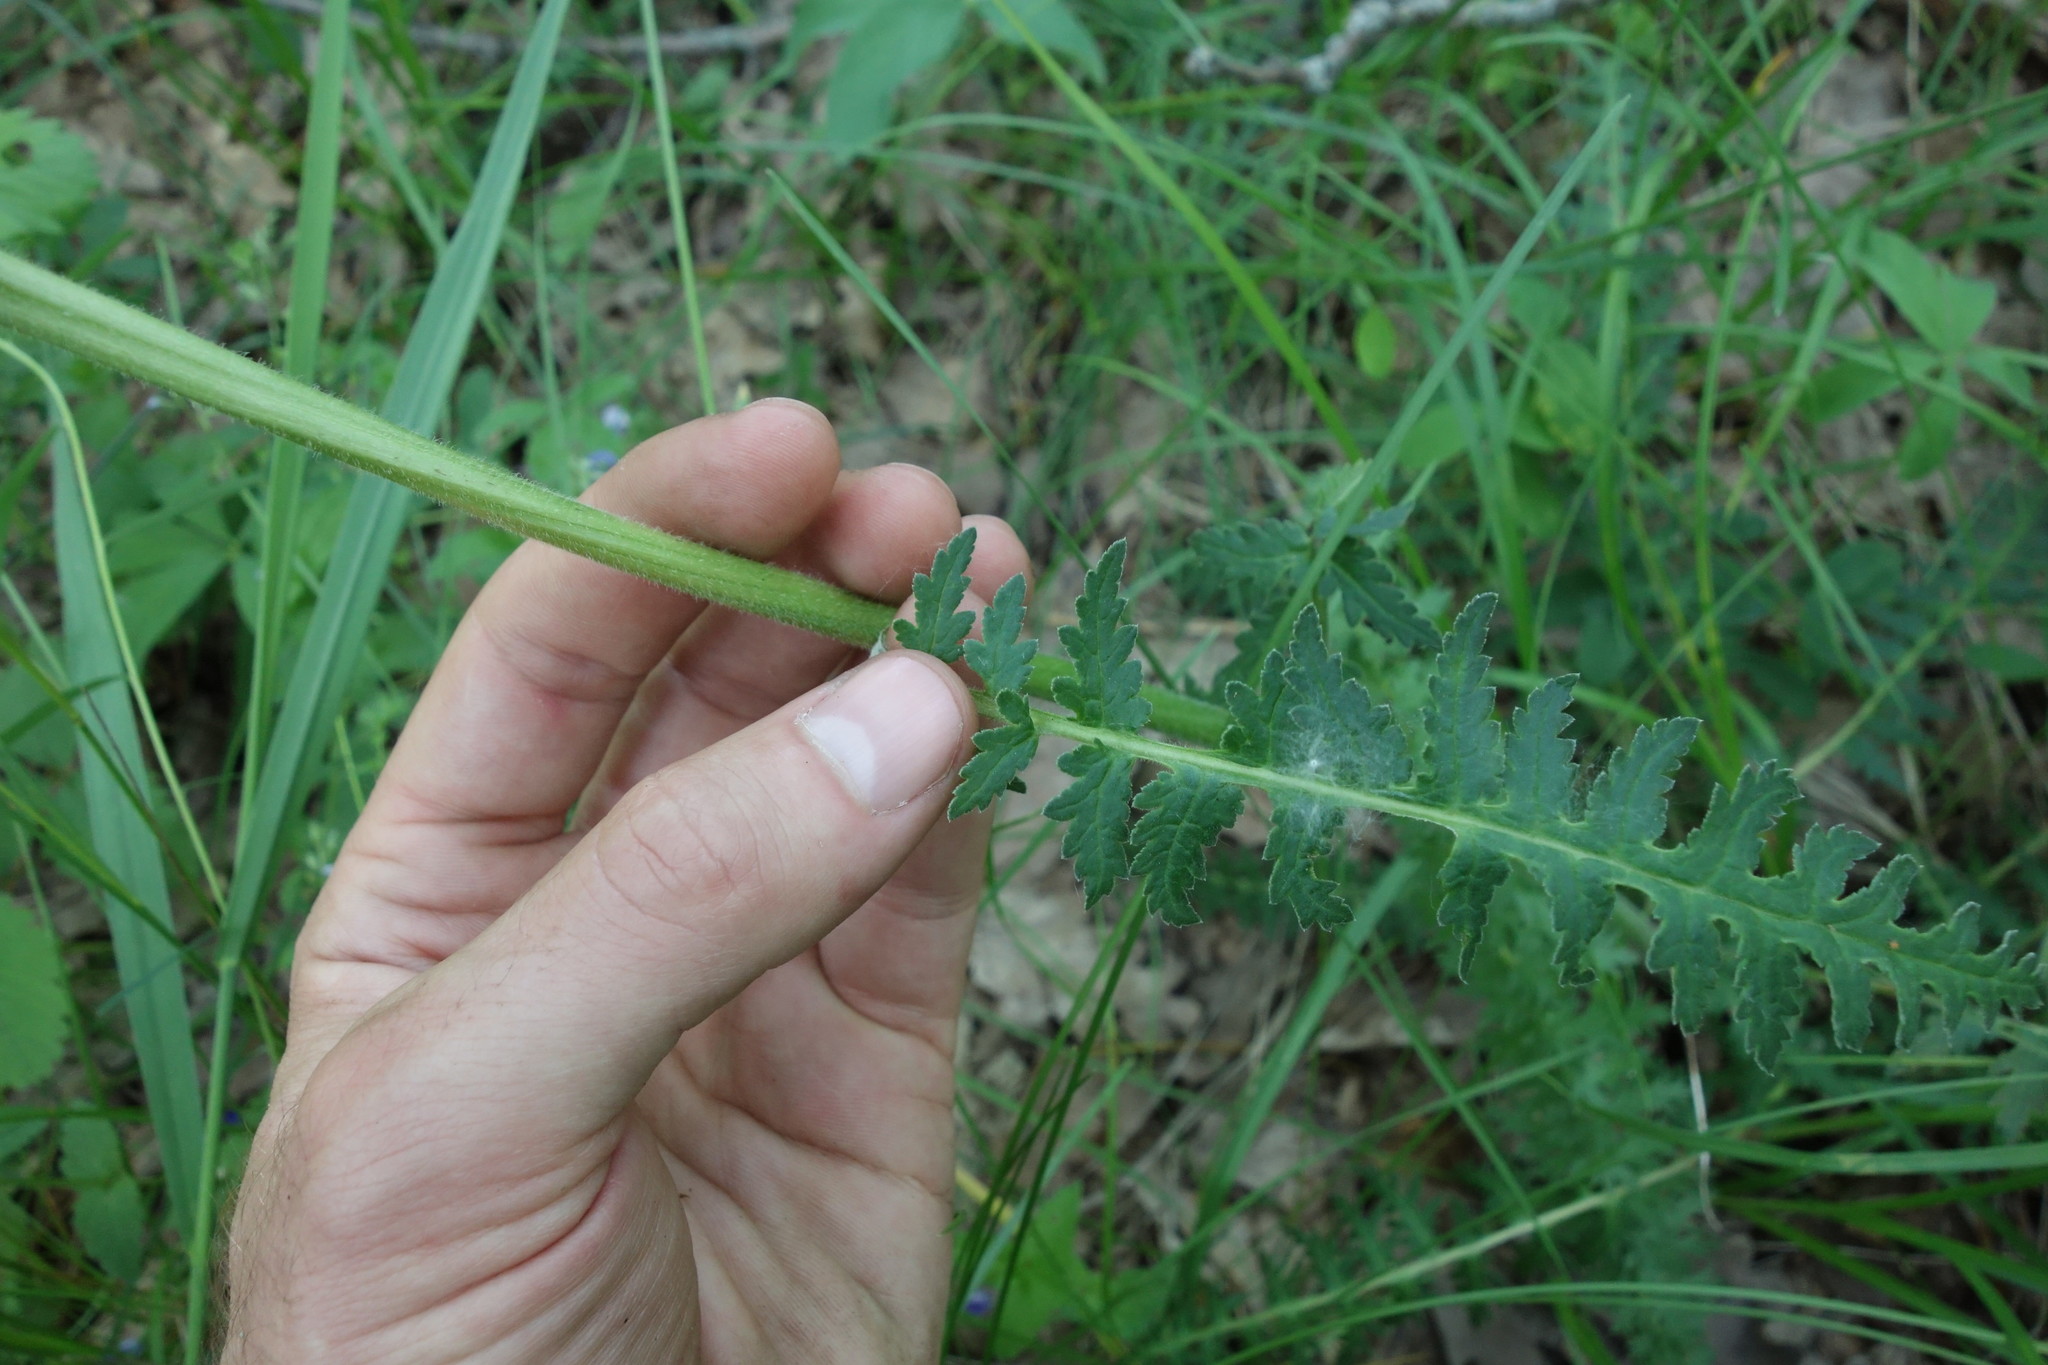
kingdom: Plantae
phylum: Tracheophyta
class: Magnoliopsida
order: Lamiales
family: Orobanchaceae
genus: Pedicularis
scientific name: Pedicularis kaufmannii
